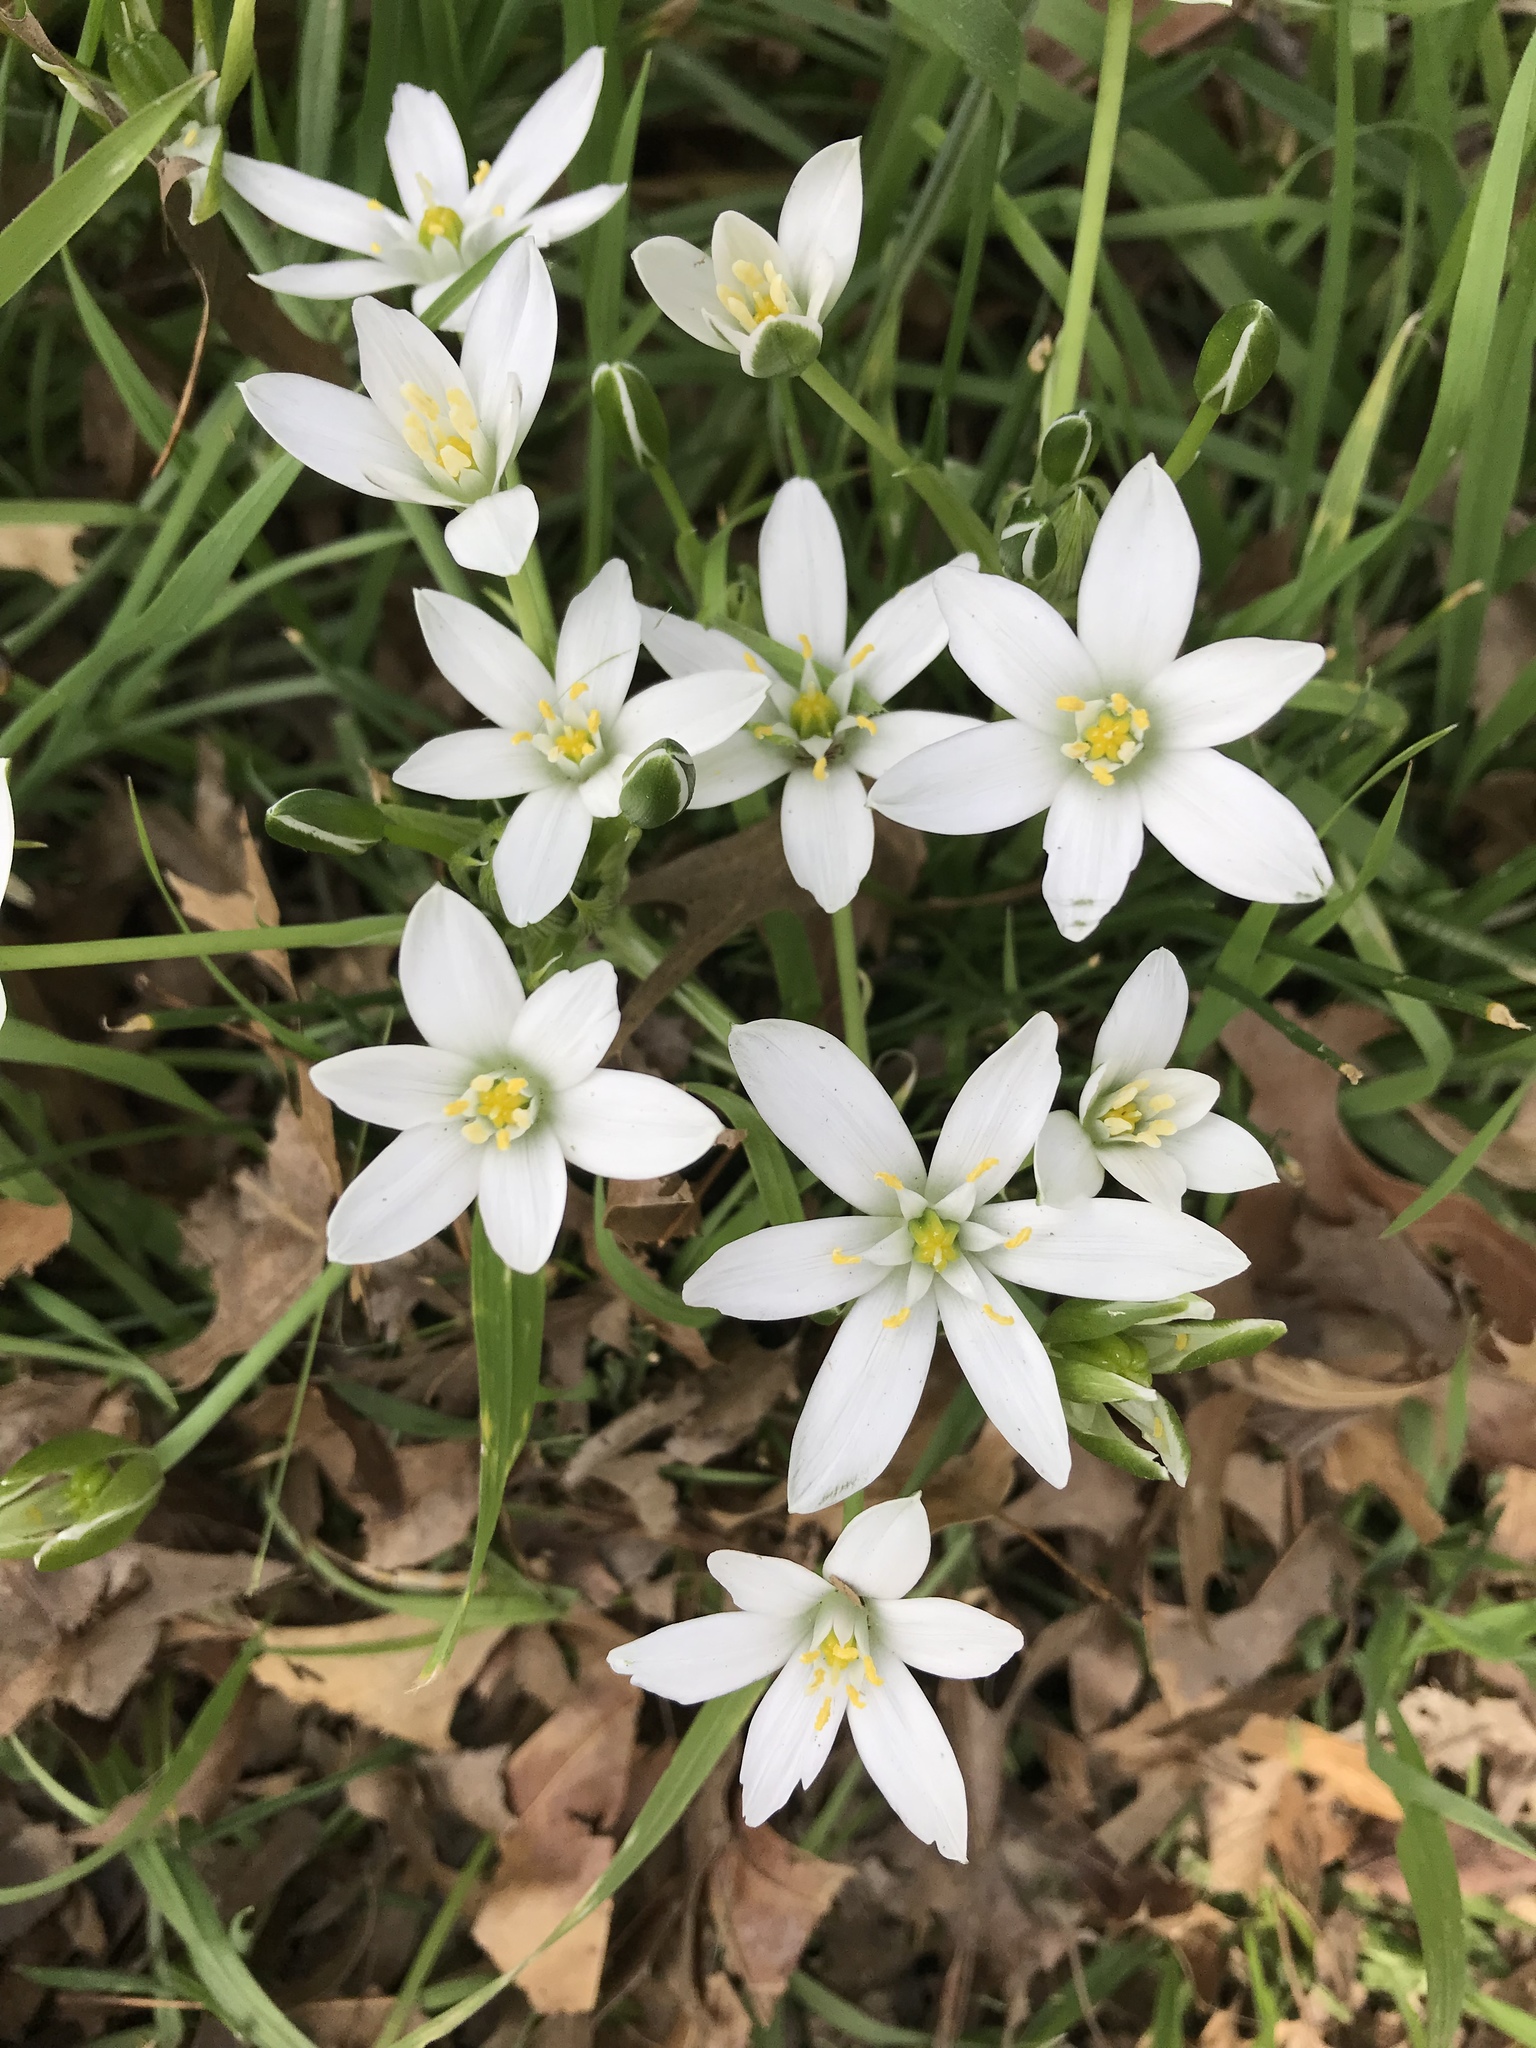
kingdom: Plantae
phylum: Tracheophyta
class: Liliopsida
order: Asparagales
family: Asparagaceae
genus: Ornithogalum
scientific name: Ornithogalum umbellatum
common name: Garden star-of-bethlehem
